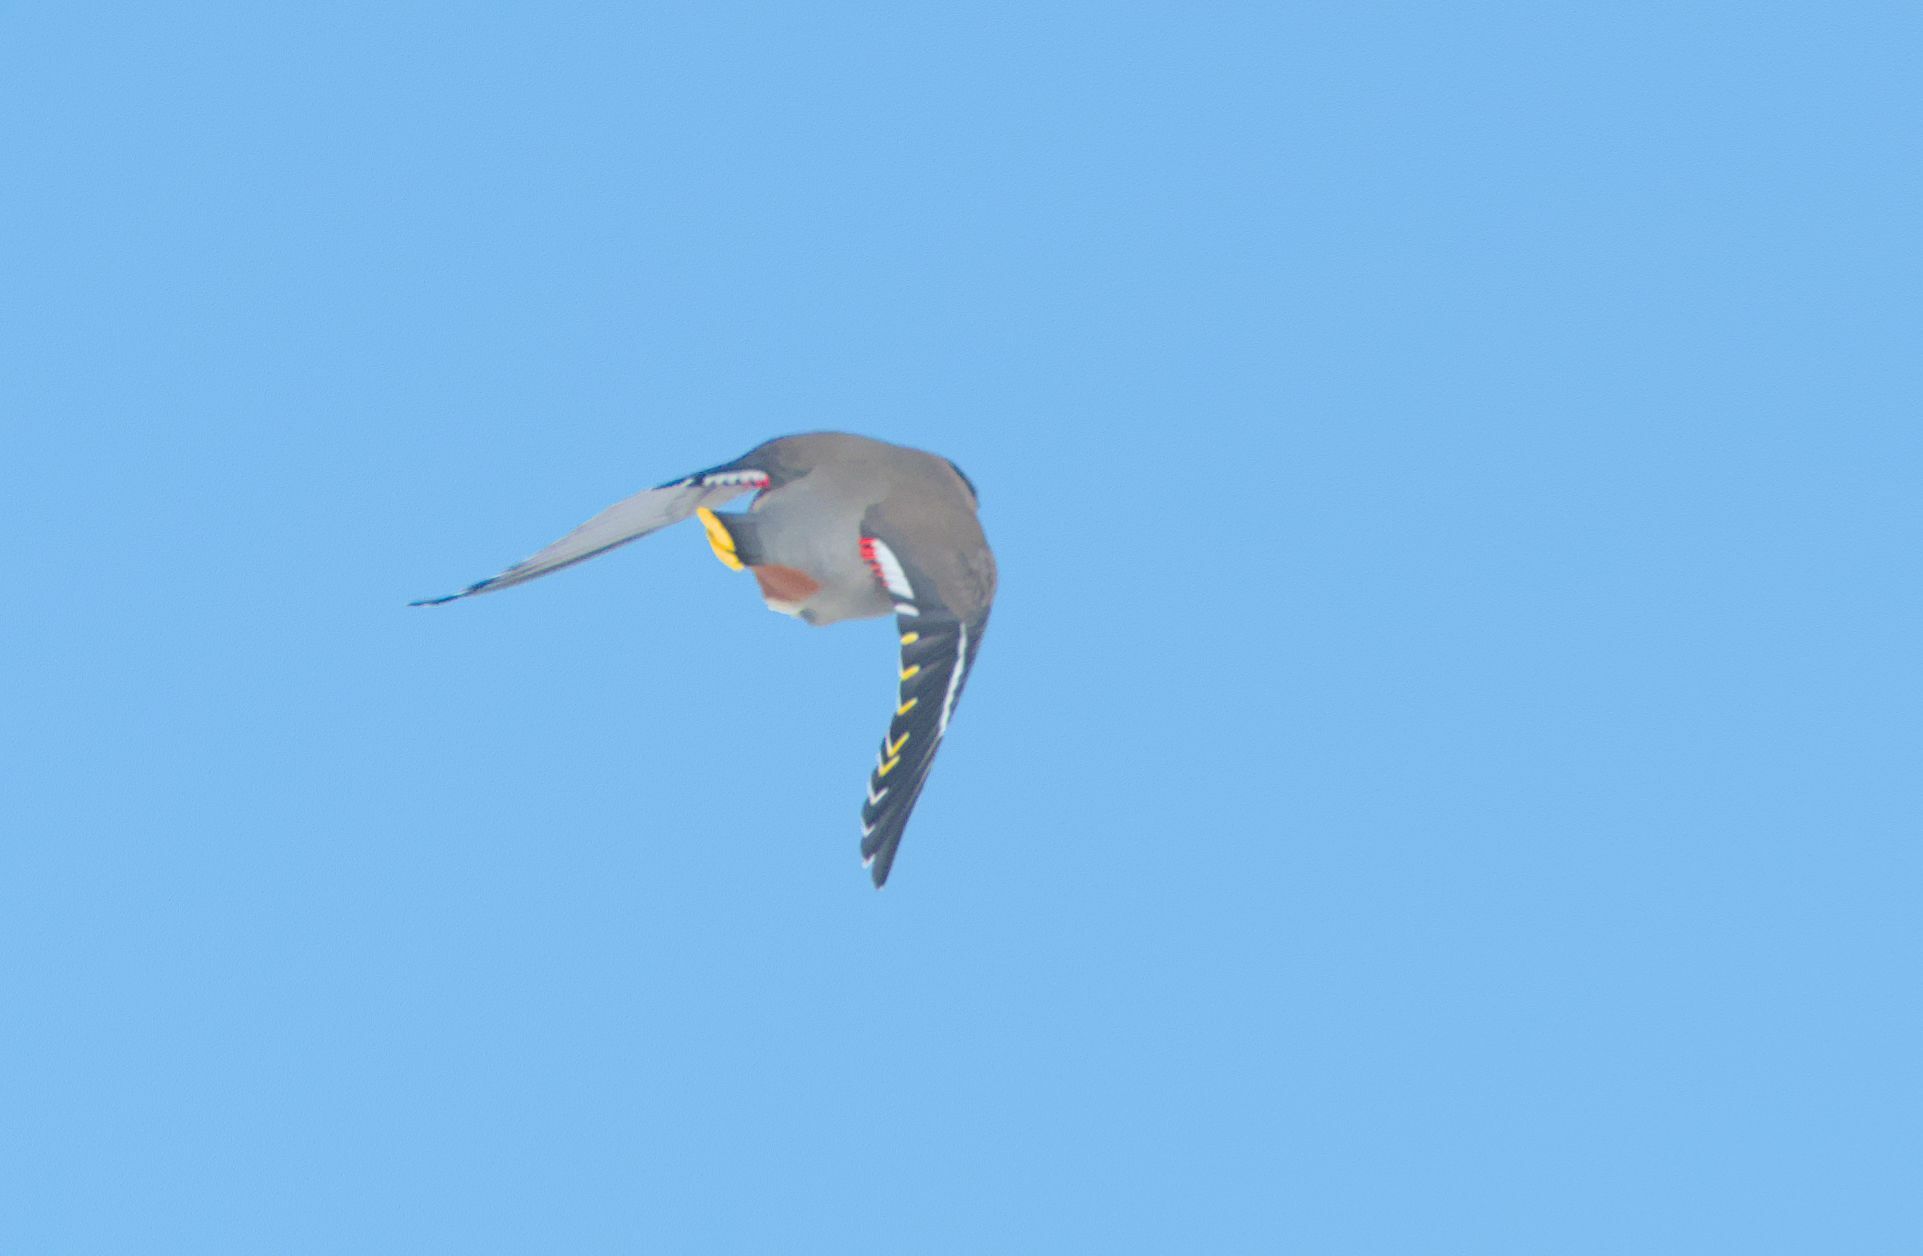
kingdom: Animalia
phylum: Chordata
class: Aves
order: Passeriformes
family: Bombycillidae
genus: Bombycilla
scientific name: Bombycilla garrulus
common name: Bohemian waxwing
